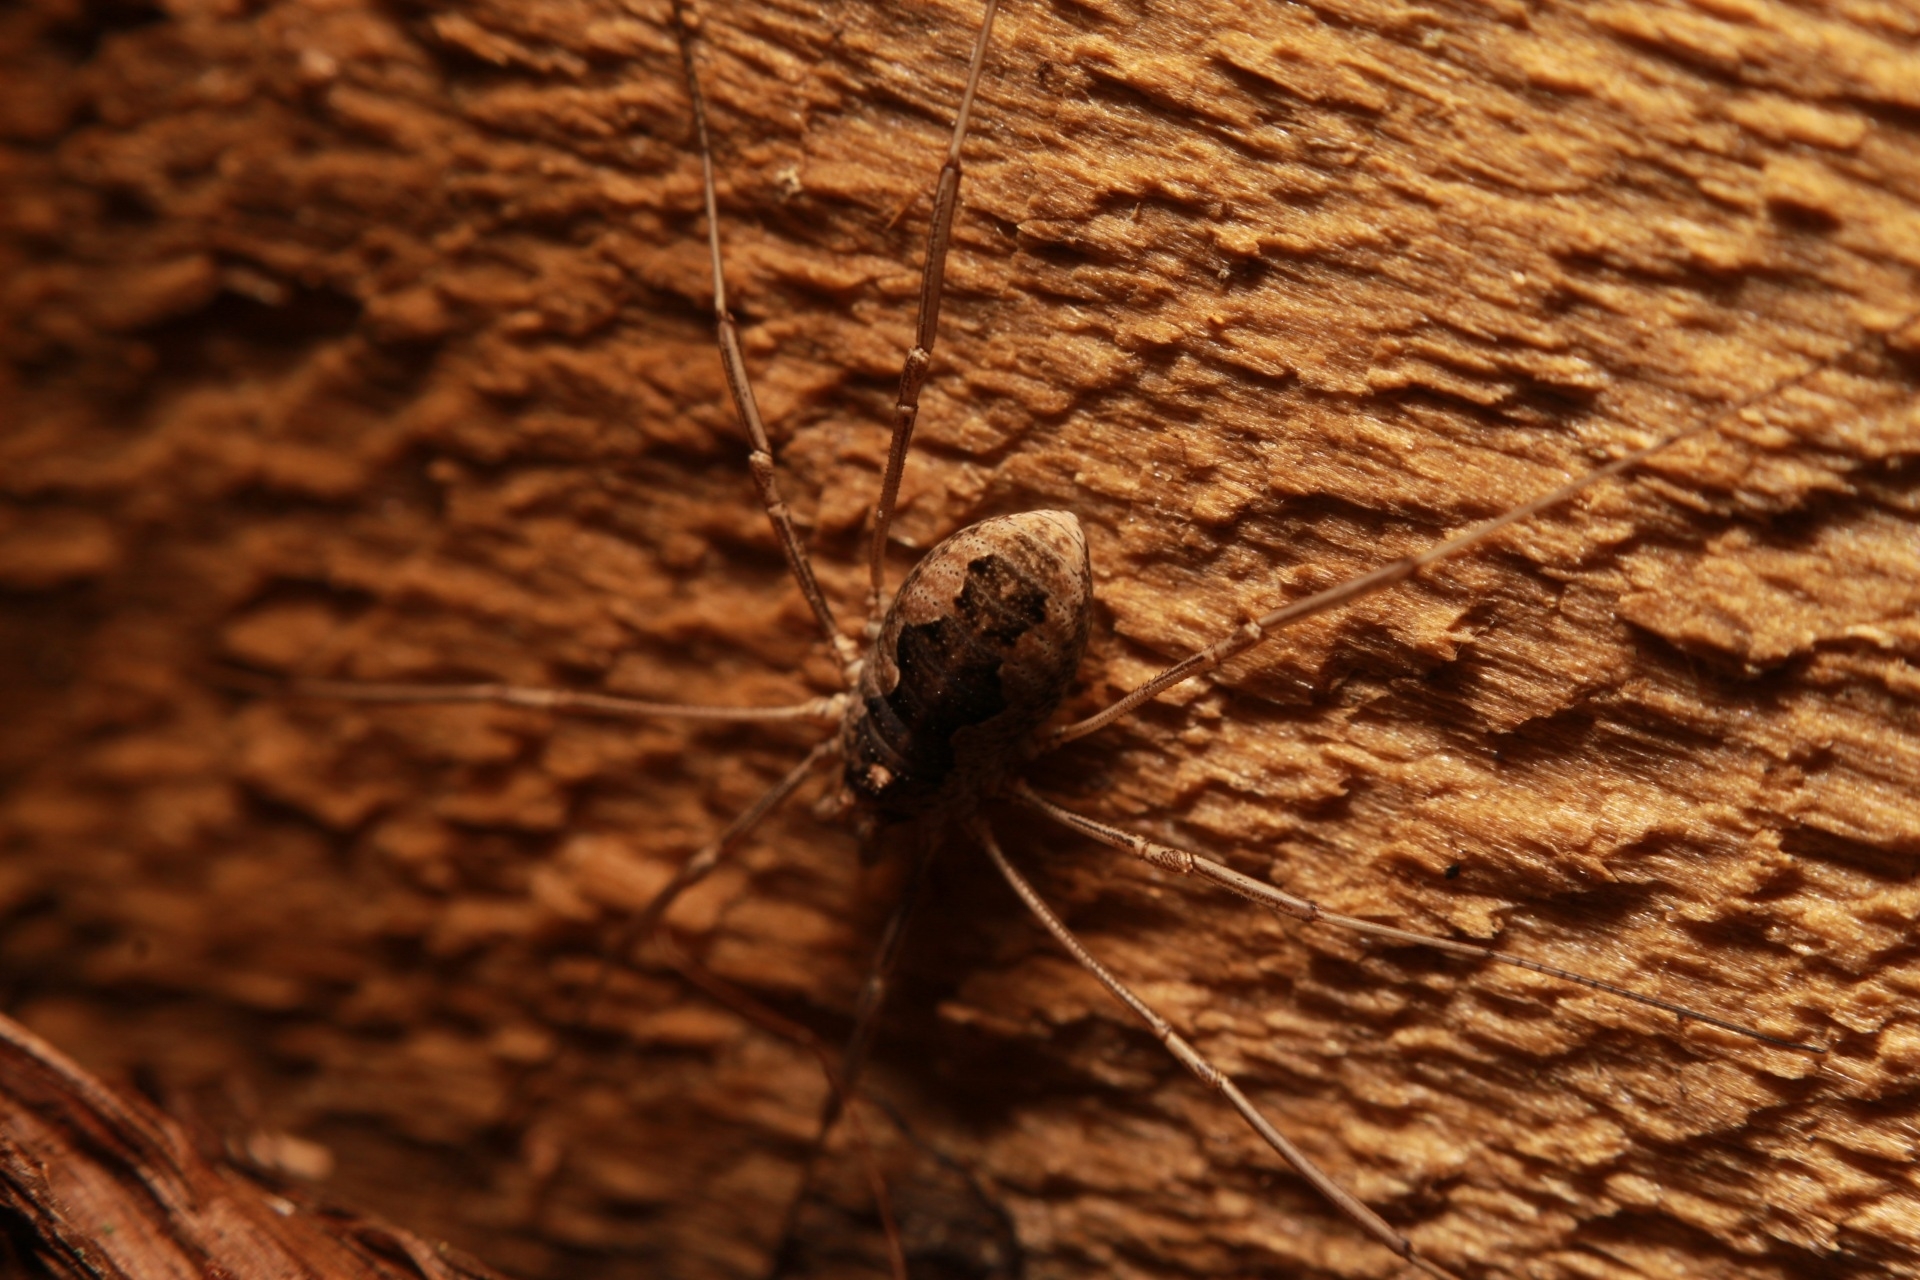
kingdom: Animalia
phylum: Arthropoda
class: Arachnida
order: Opiliones
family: Phalangiidae
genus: Phalangium
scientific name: Phalangium opilio
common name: Daddy longleg
